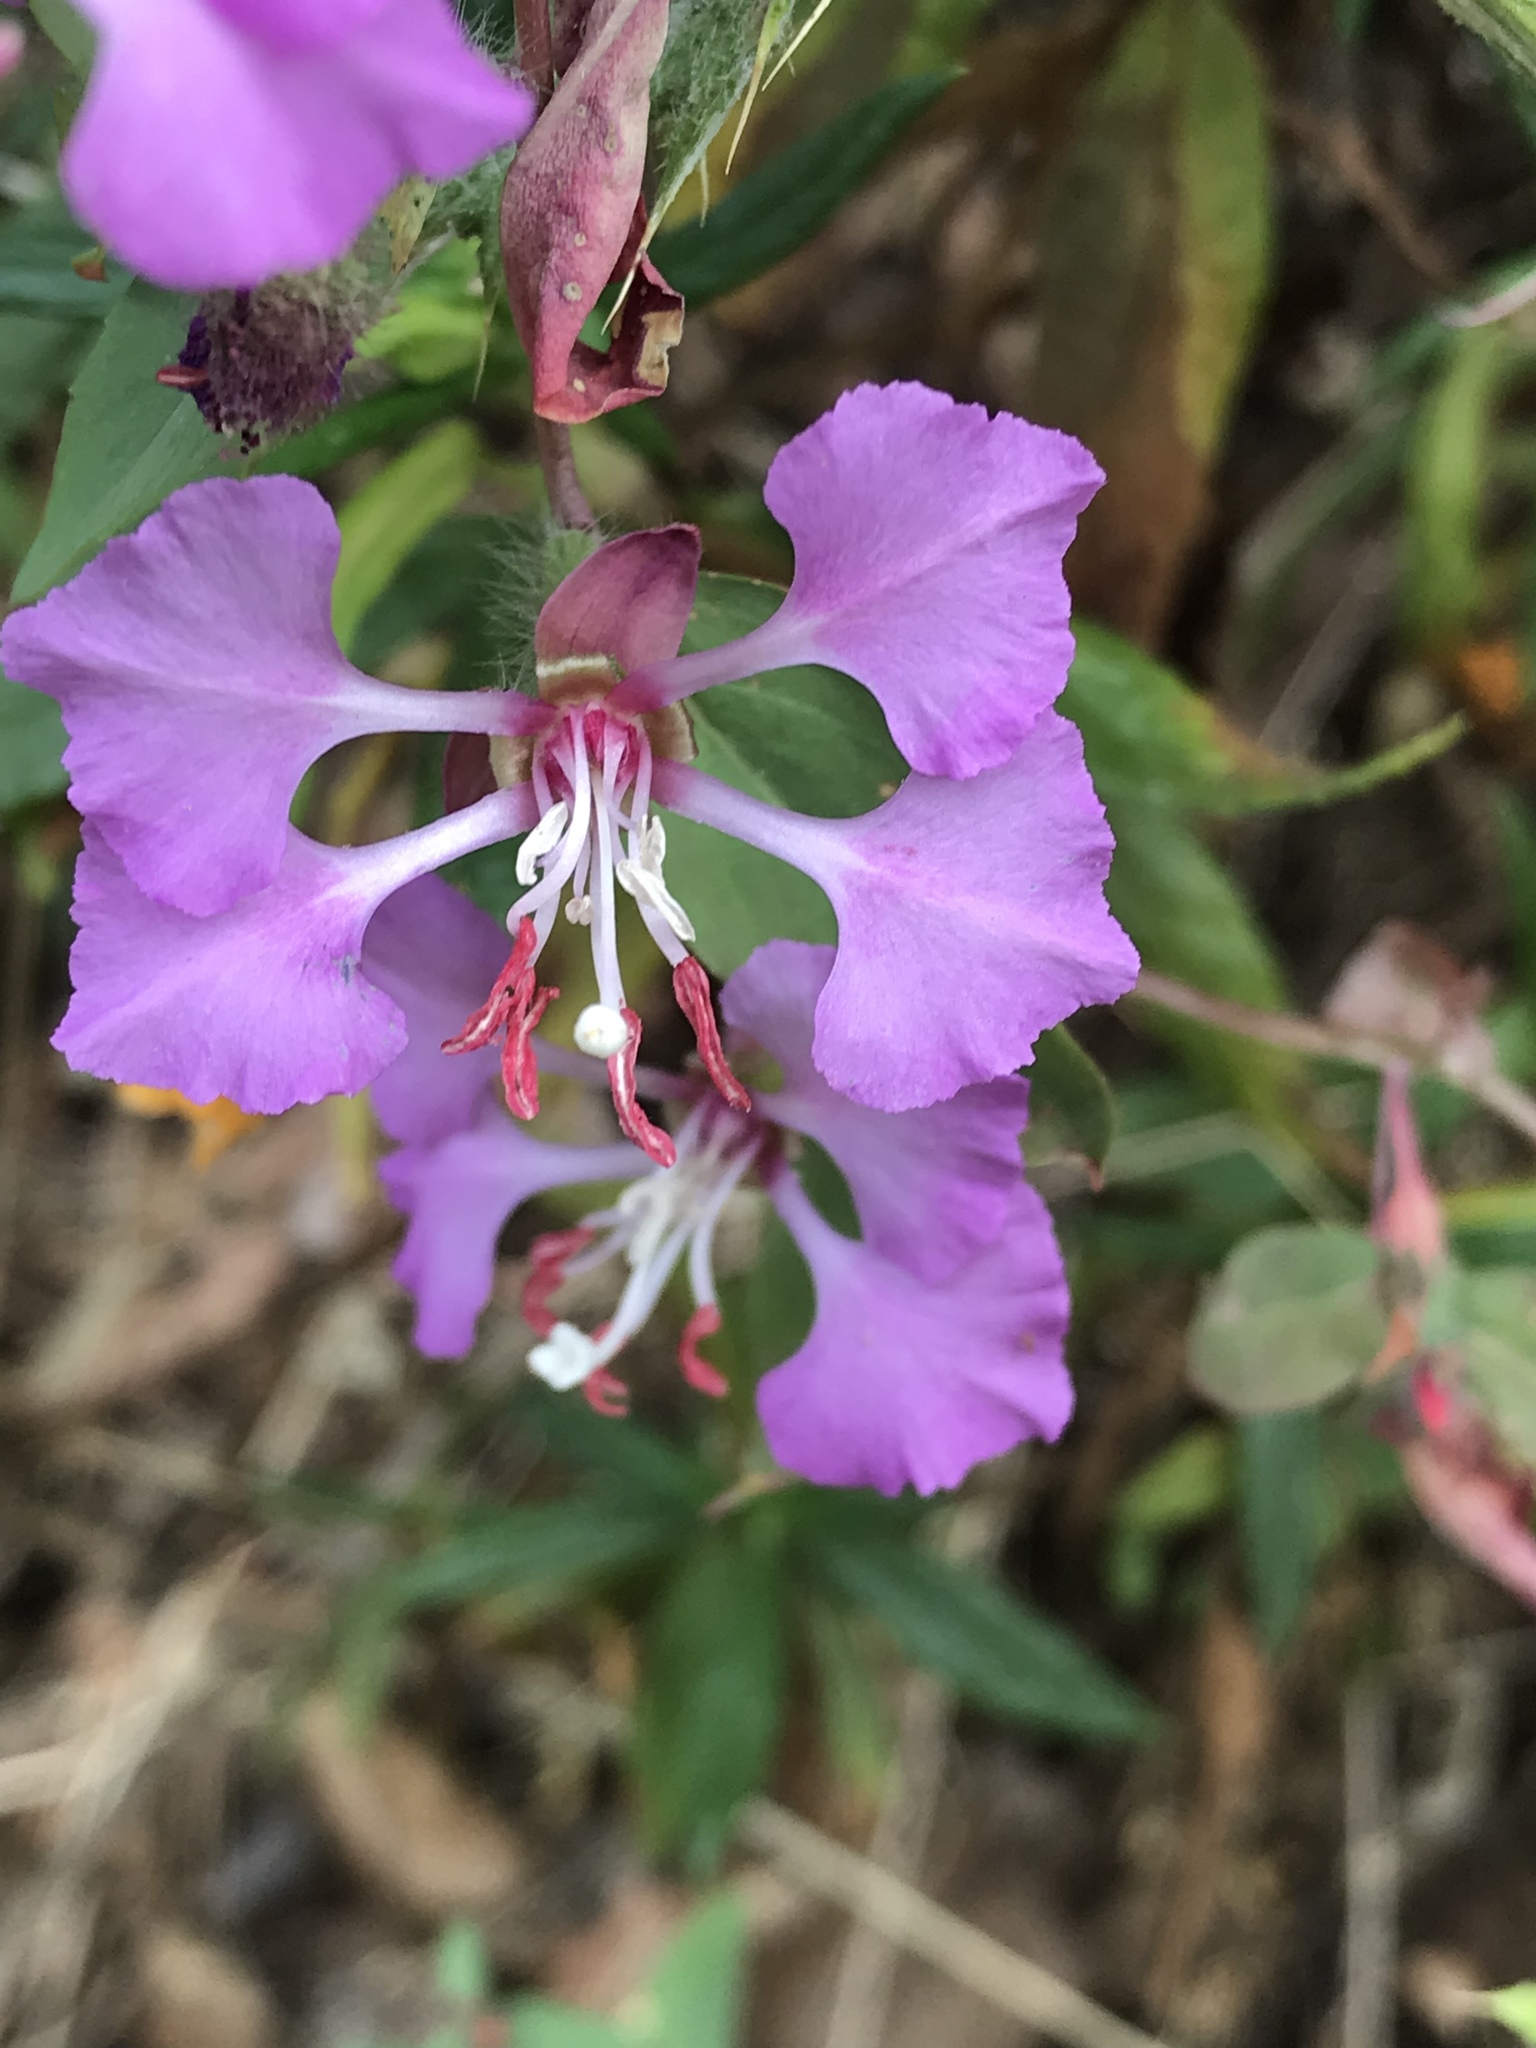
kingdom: Plantae
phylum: Tracheophyta
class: Magnoliopsida
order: Myrtales
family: Onagraceae
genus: Clarkia
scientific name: Clarkia unguiculata
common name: Clarkia
